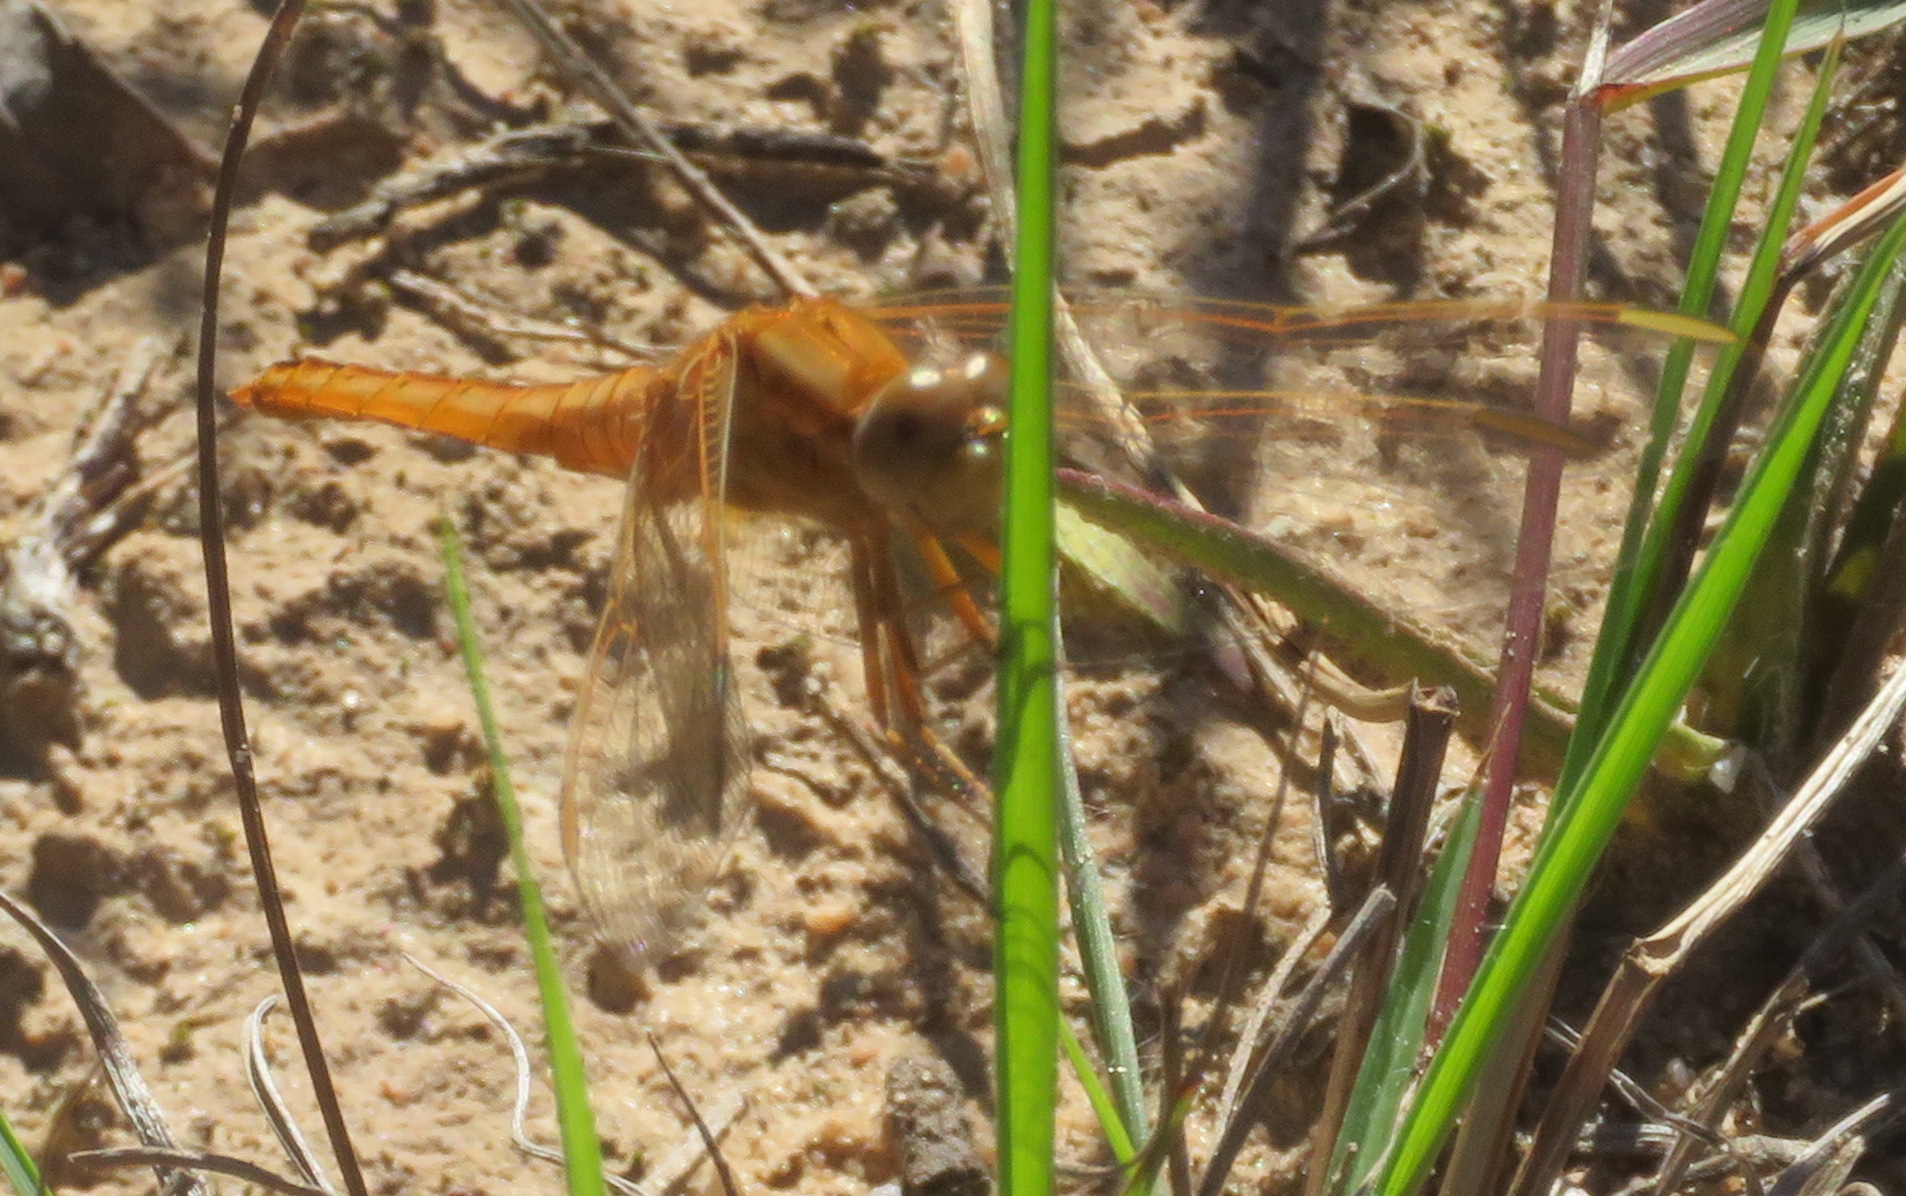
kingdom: Animalia
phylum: Arthropoda
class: Insecta
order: Odonata
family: Libellulidae
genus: Crocothemis
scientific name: Crocothemis erythraea
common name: Scarlet dragonfly
